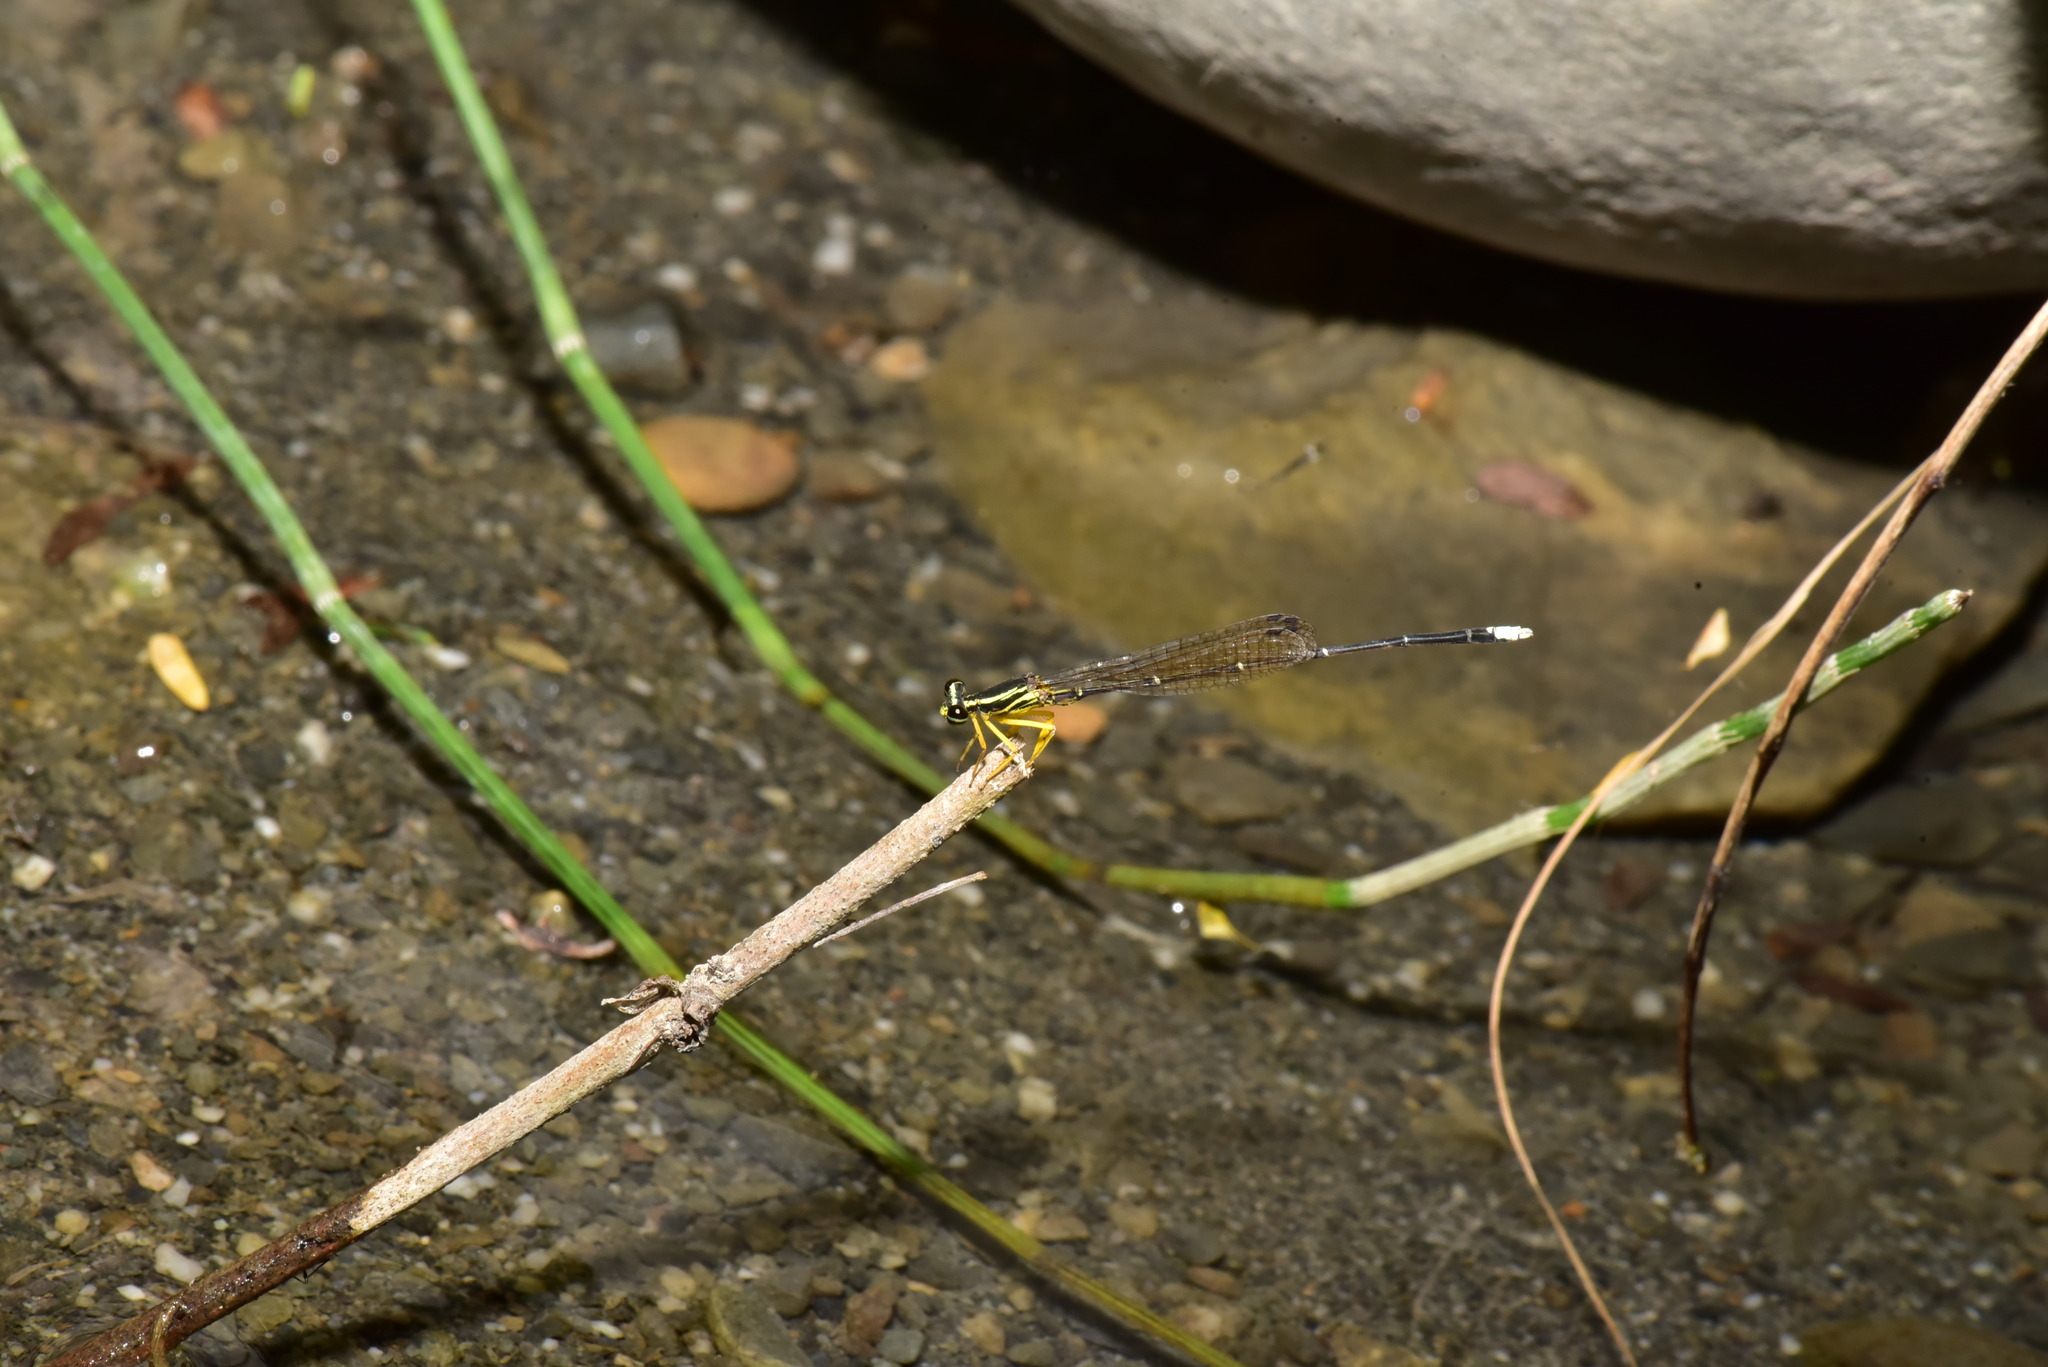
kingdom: Animalia
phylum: Arthropoda
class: Insecta
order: Odonata
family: Platycnemididae
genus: Copera
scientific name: Copera marginipes
